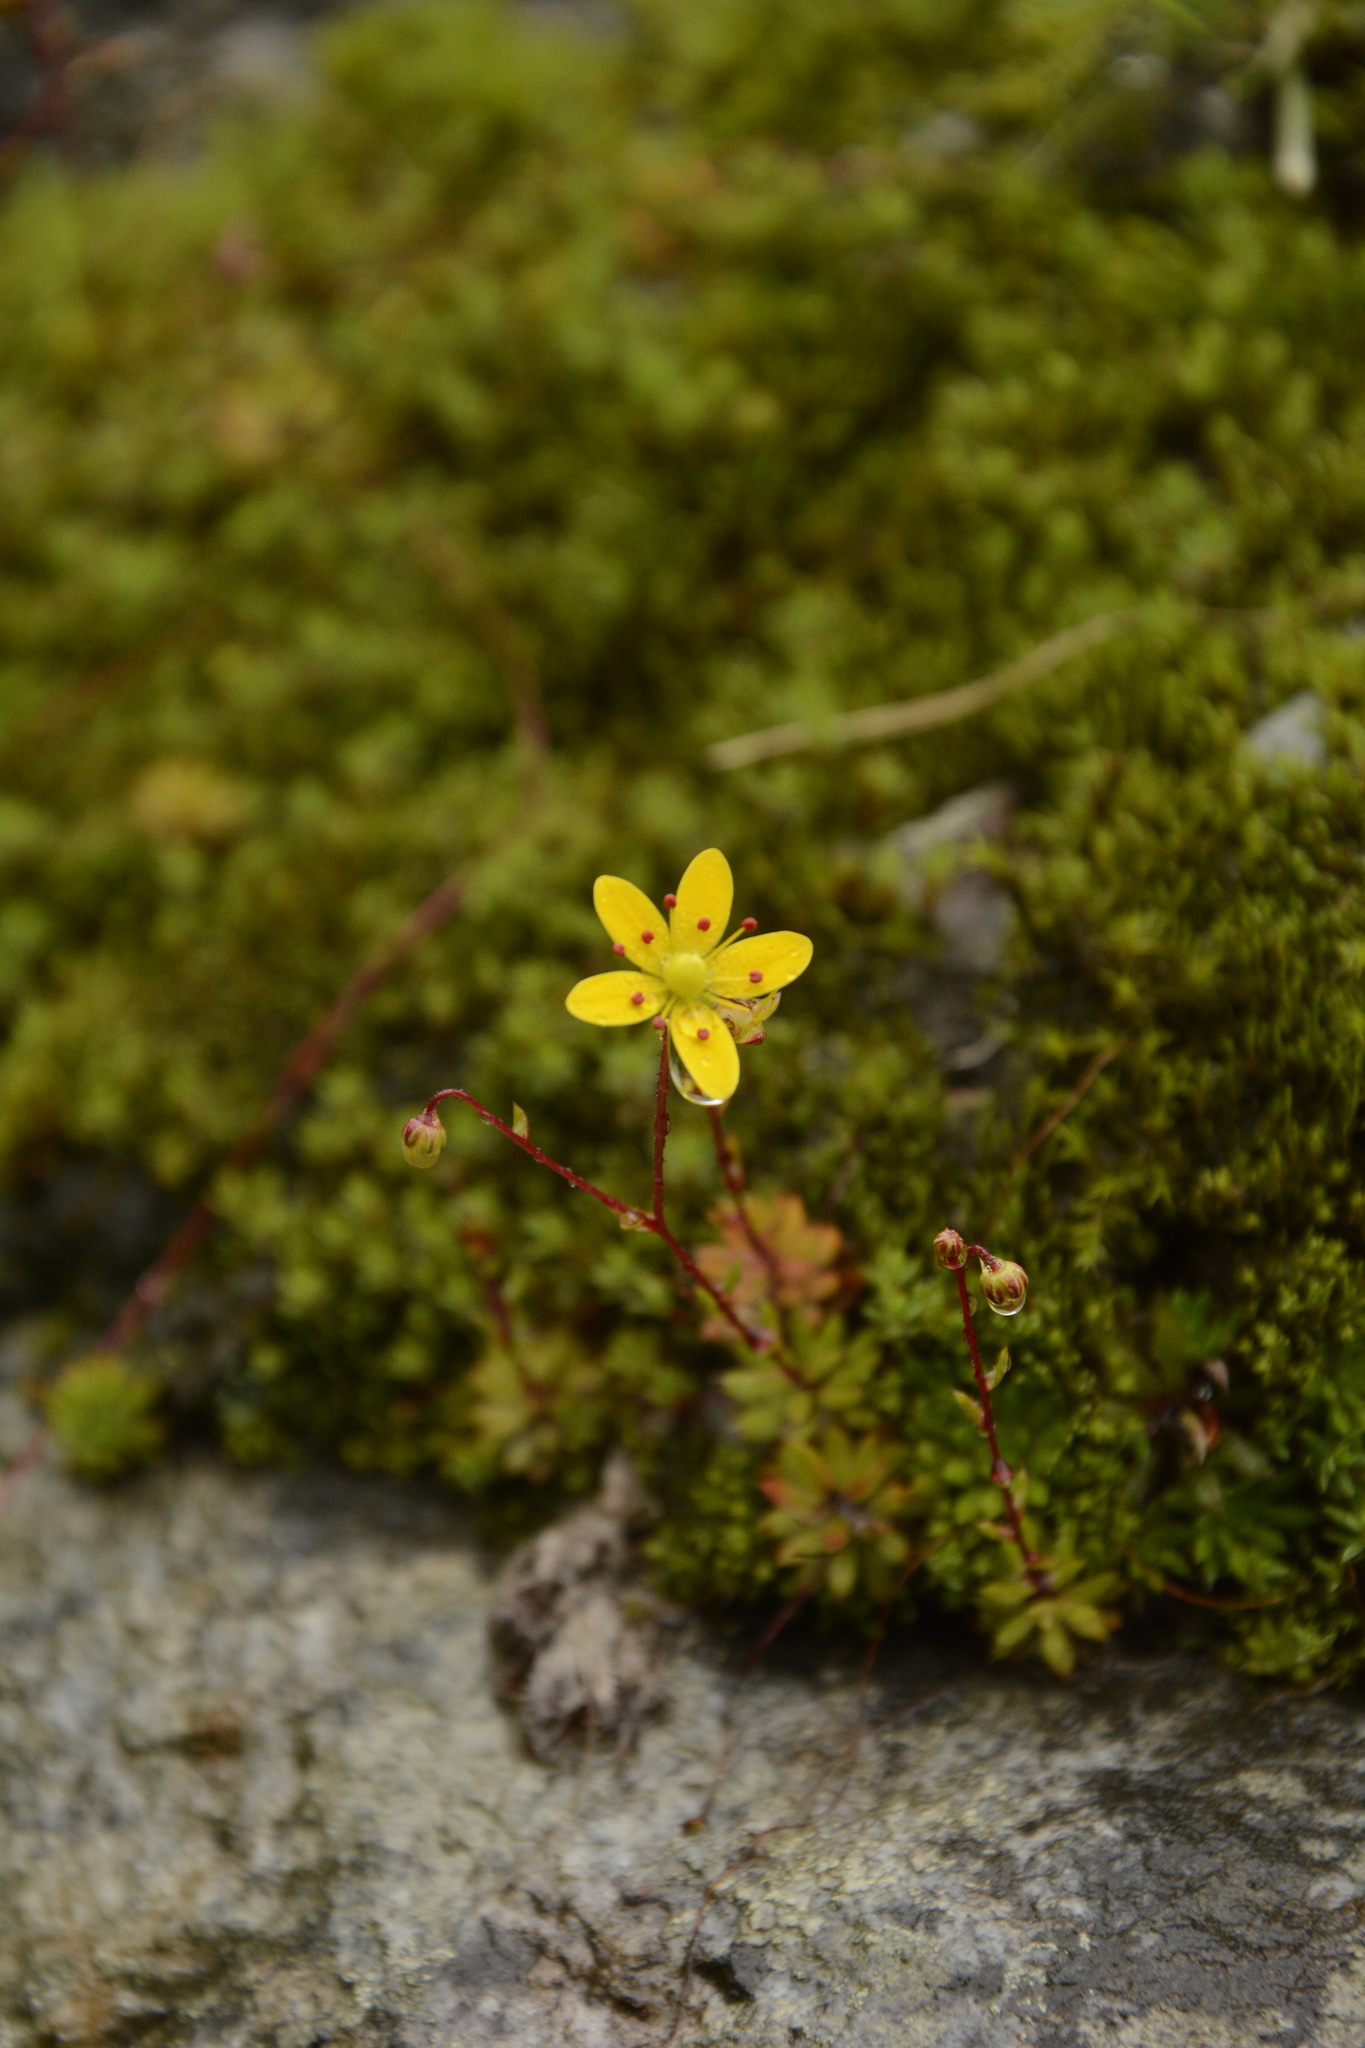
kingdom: Plantae
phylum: Tracheophyta
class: Magnoliopsida
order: Saxifragales
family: Saxifragaceae
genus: Saxifraga
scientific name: Saxifraga brunonis
